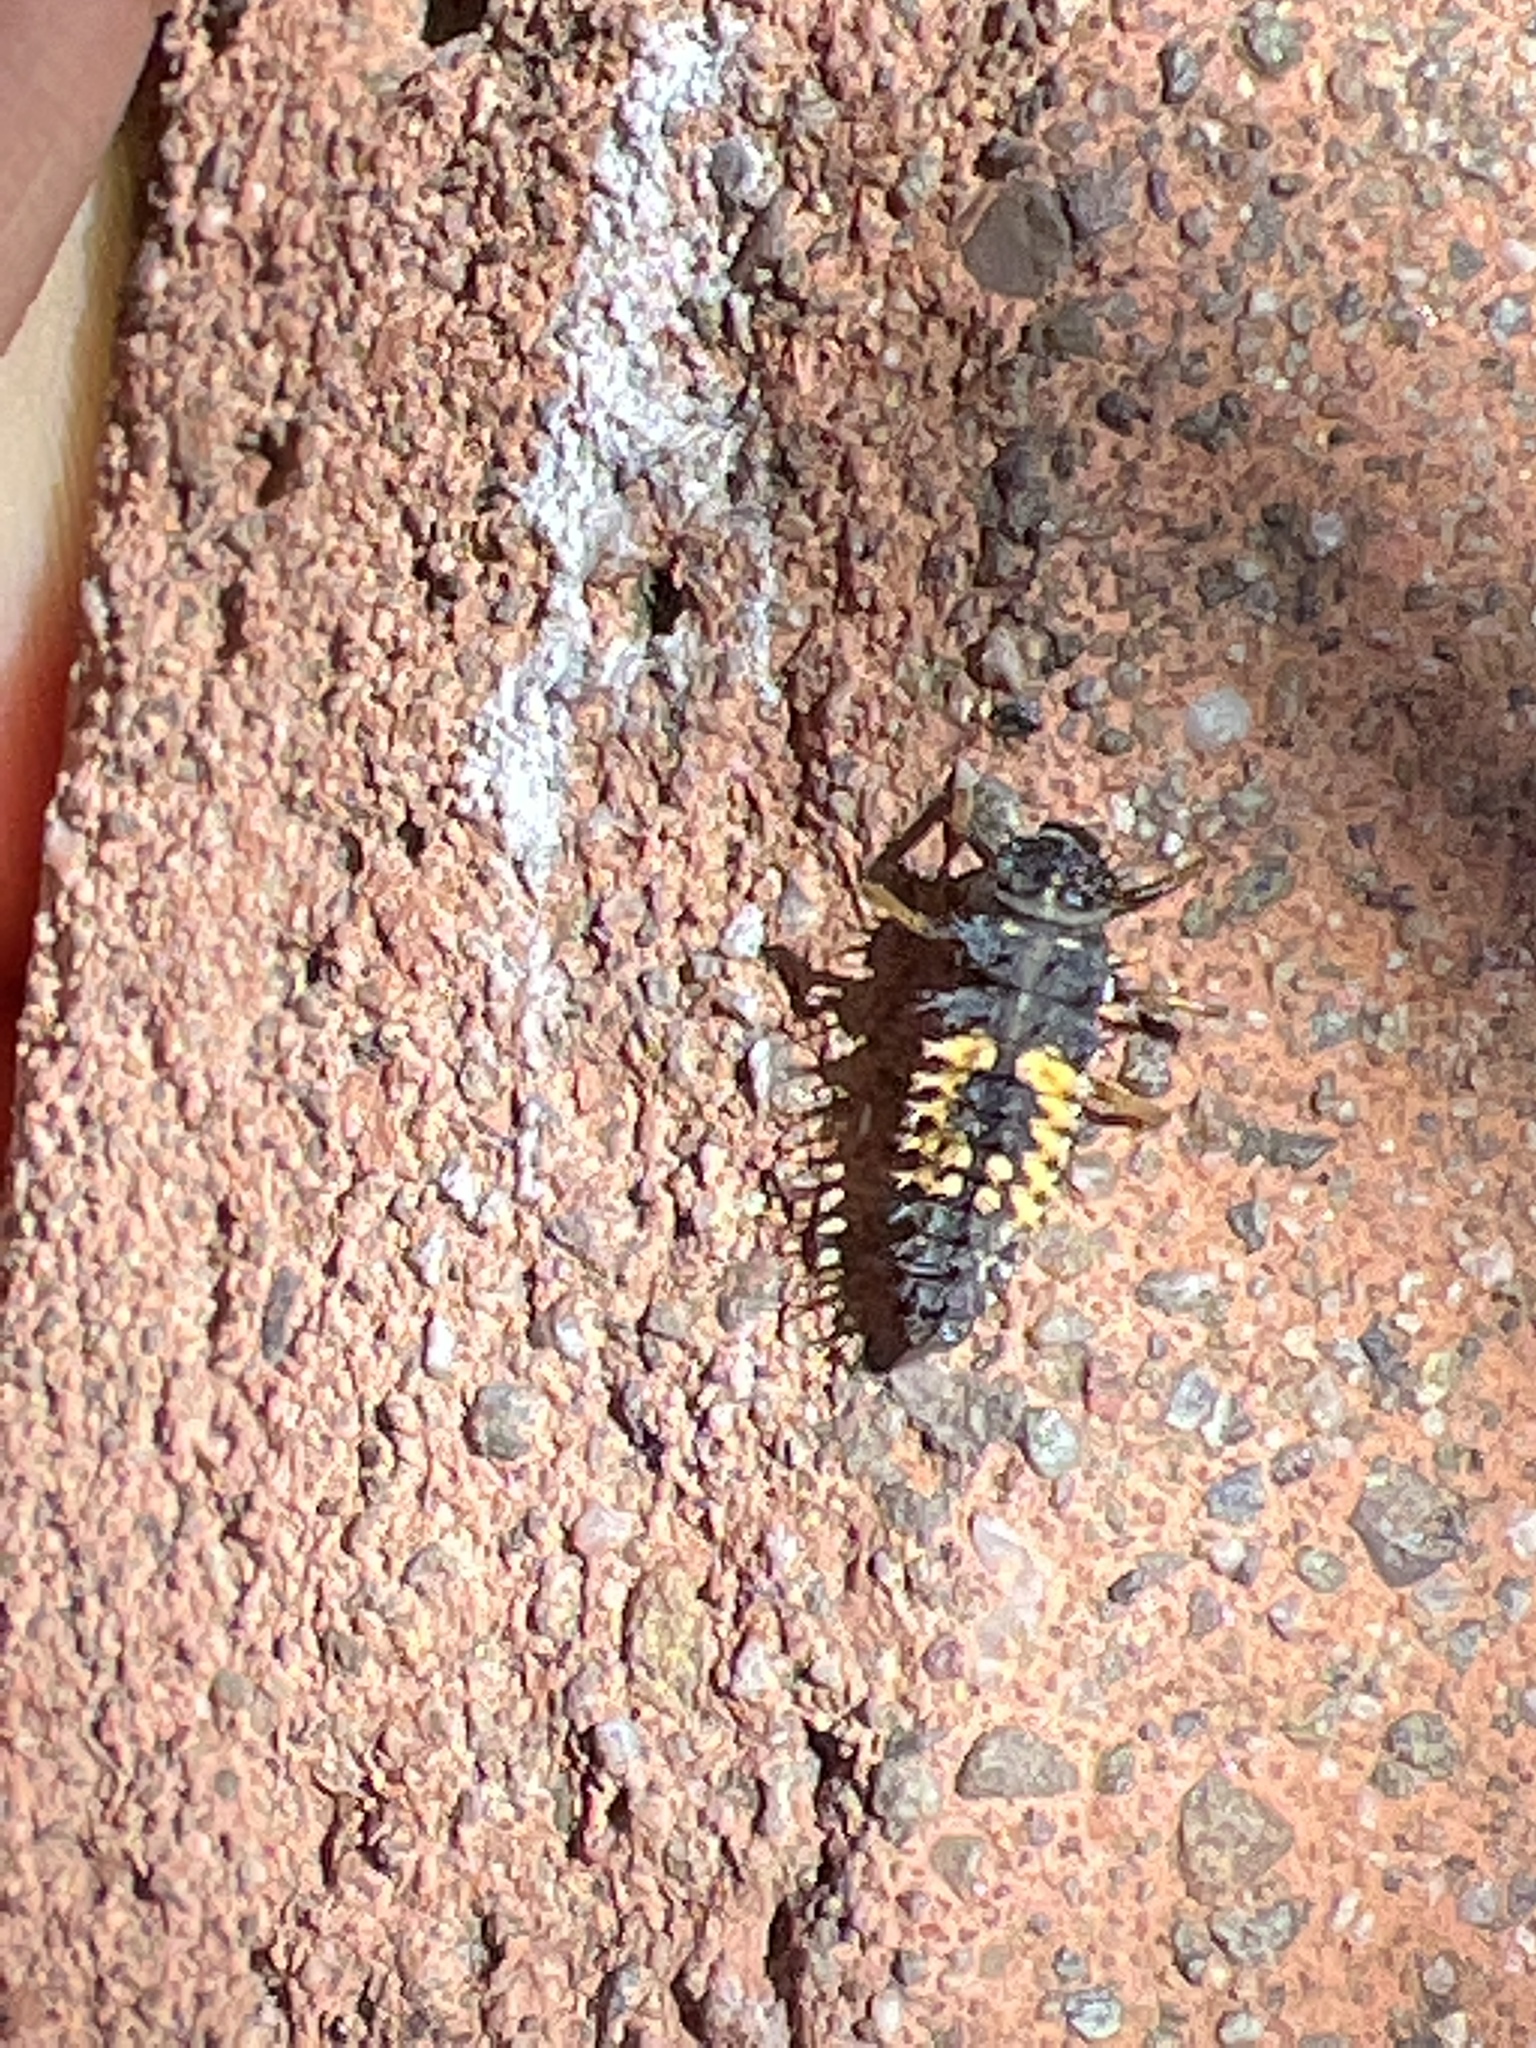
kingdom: Animalia
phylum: Arthropoda
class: Insecta
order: Coleoptera
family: Coccinellidae
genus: Harmonia
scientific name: Harmonia axyridis
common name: Harlequin ladybird
